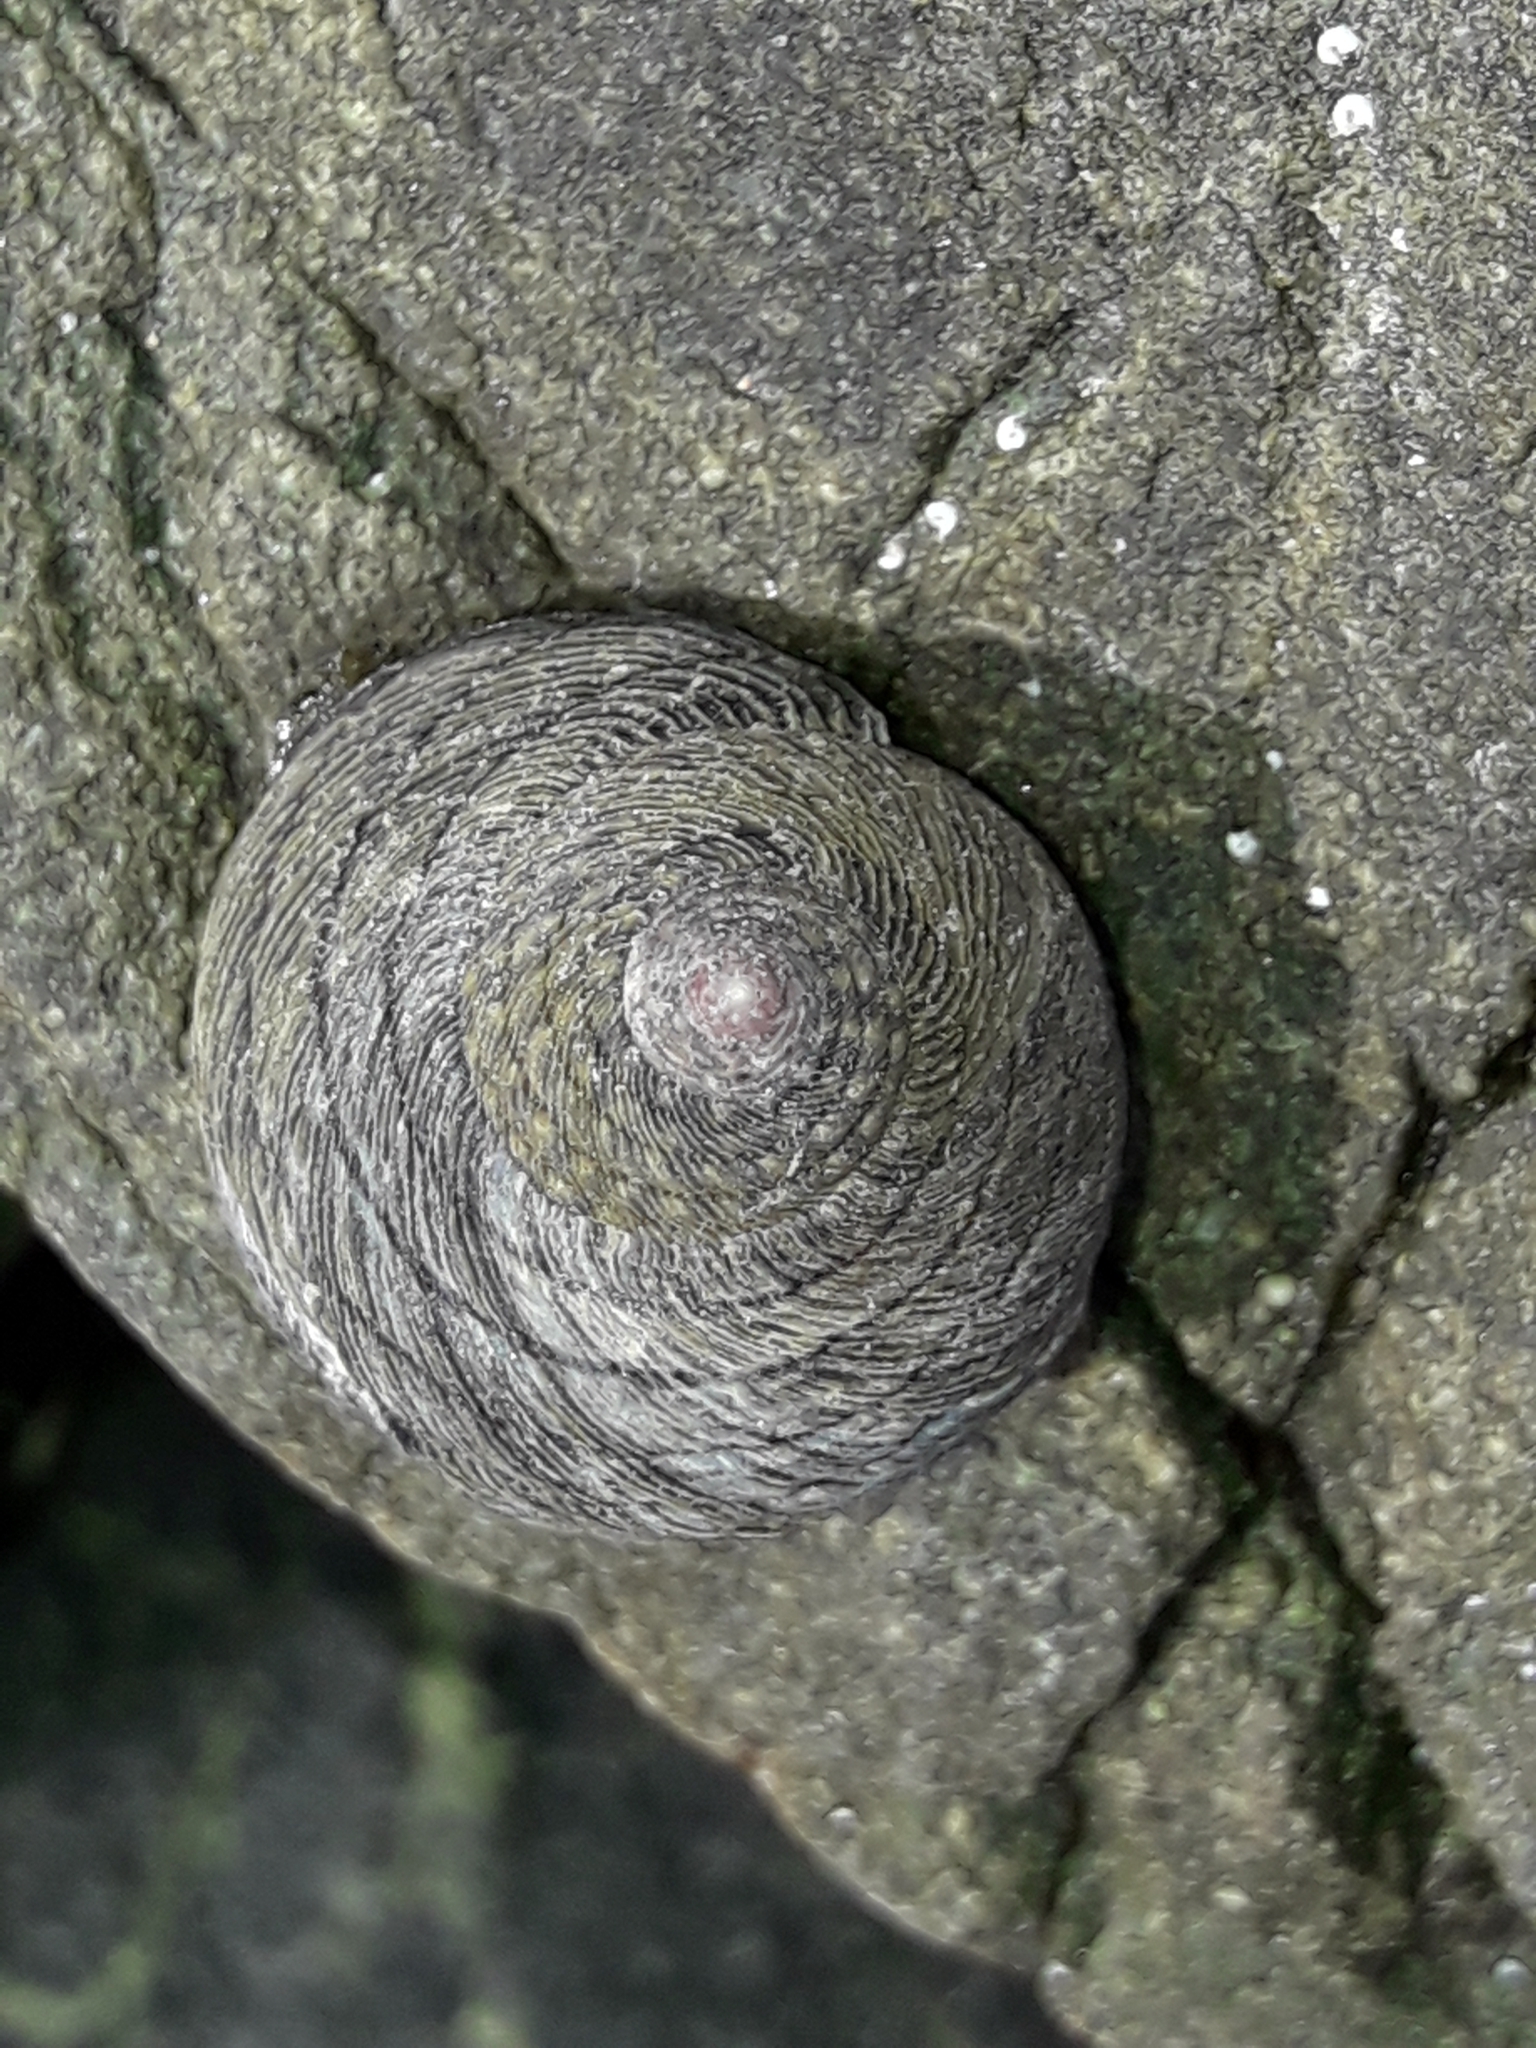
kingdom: Animalia
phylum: Mollusca
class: Gastropoda
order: Trochida
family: Trochidae
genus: Diloma
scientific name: Diloma aethiops
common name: Scorched monodont
